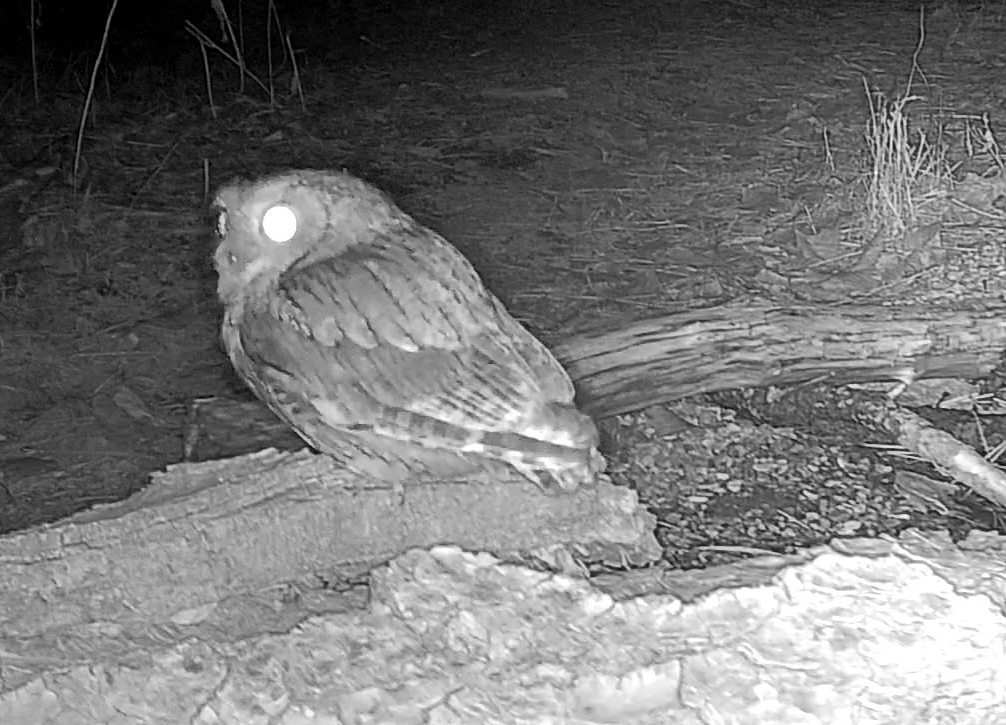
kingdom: Animalia
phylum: Chordata
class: Aves
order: Strigiformes
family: Strigidae
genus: Megascops
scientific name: Megascops asio
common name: Eastern screech-owl
